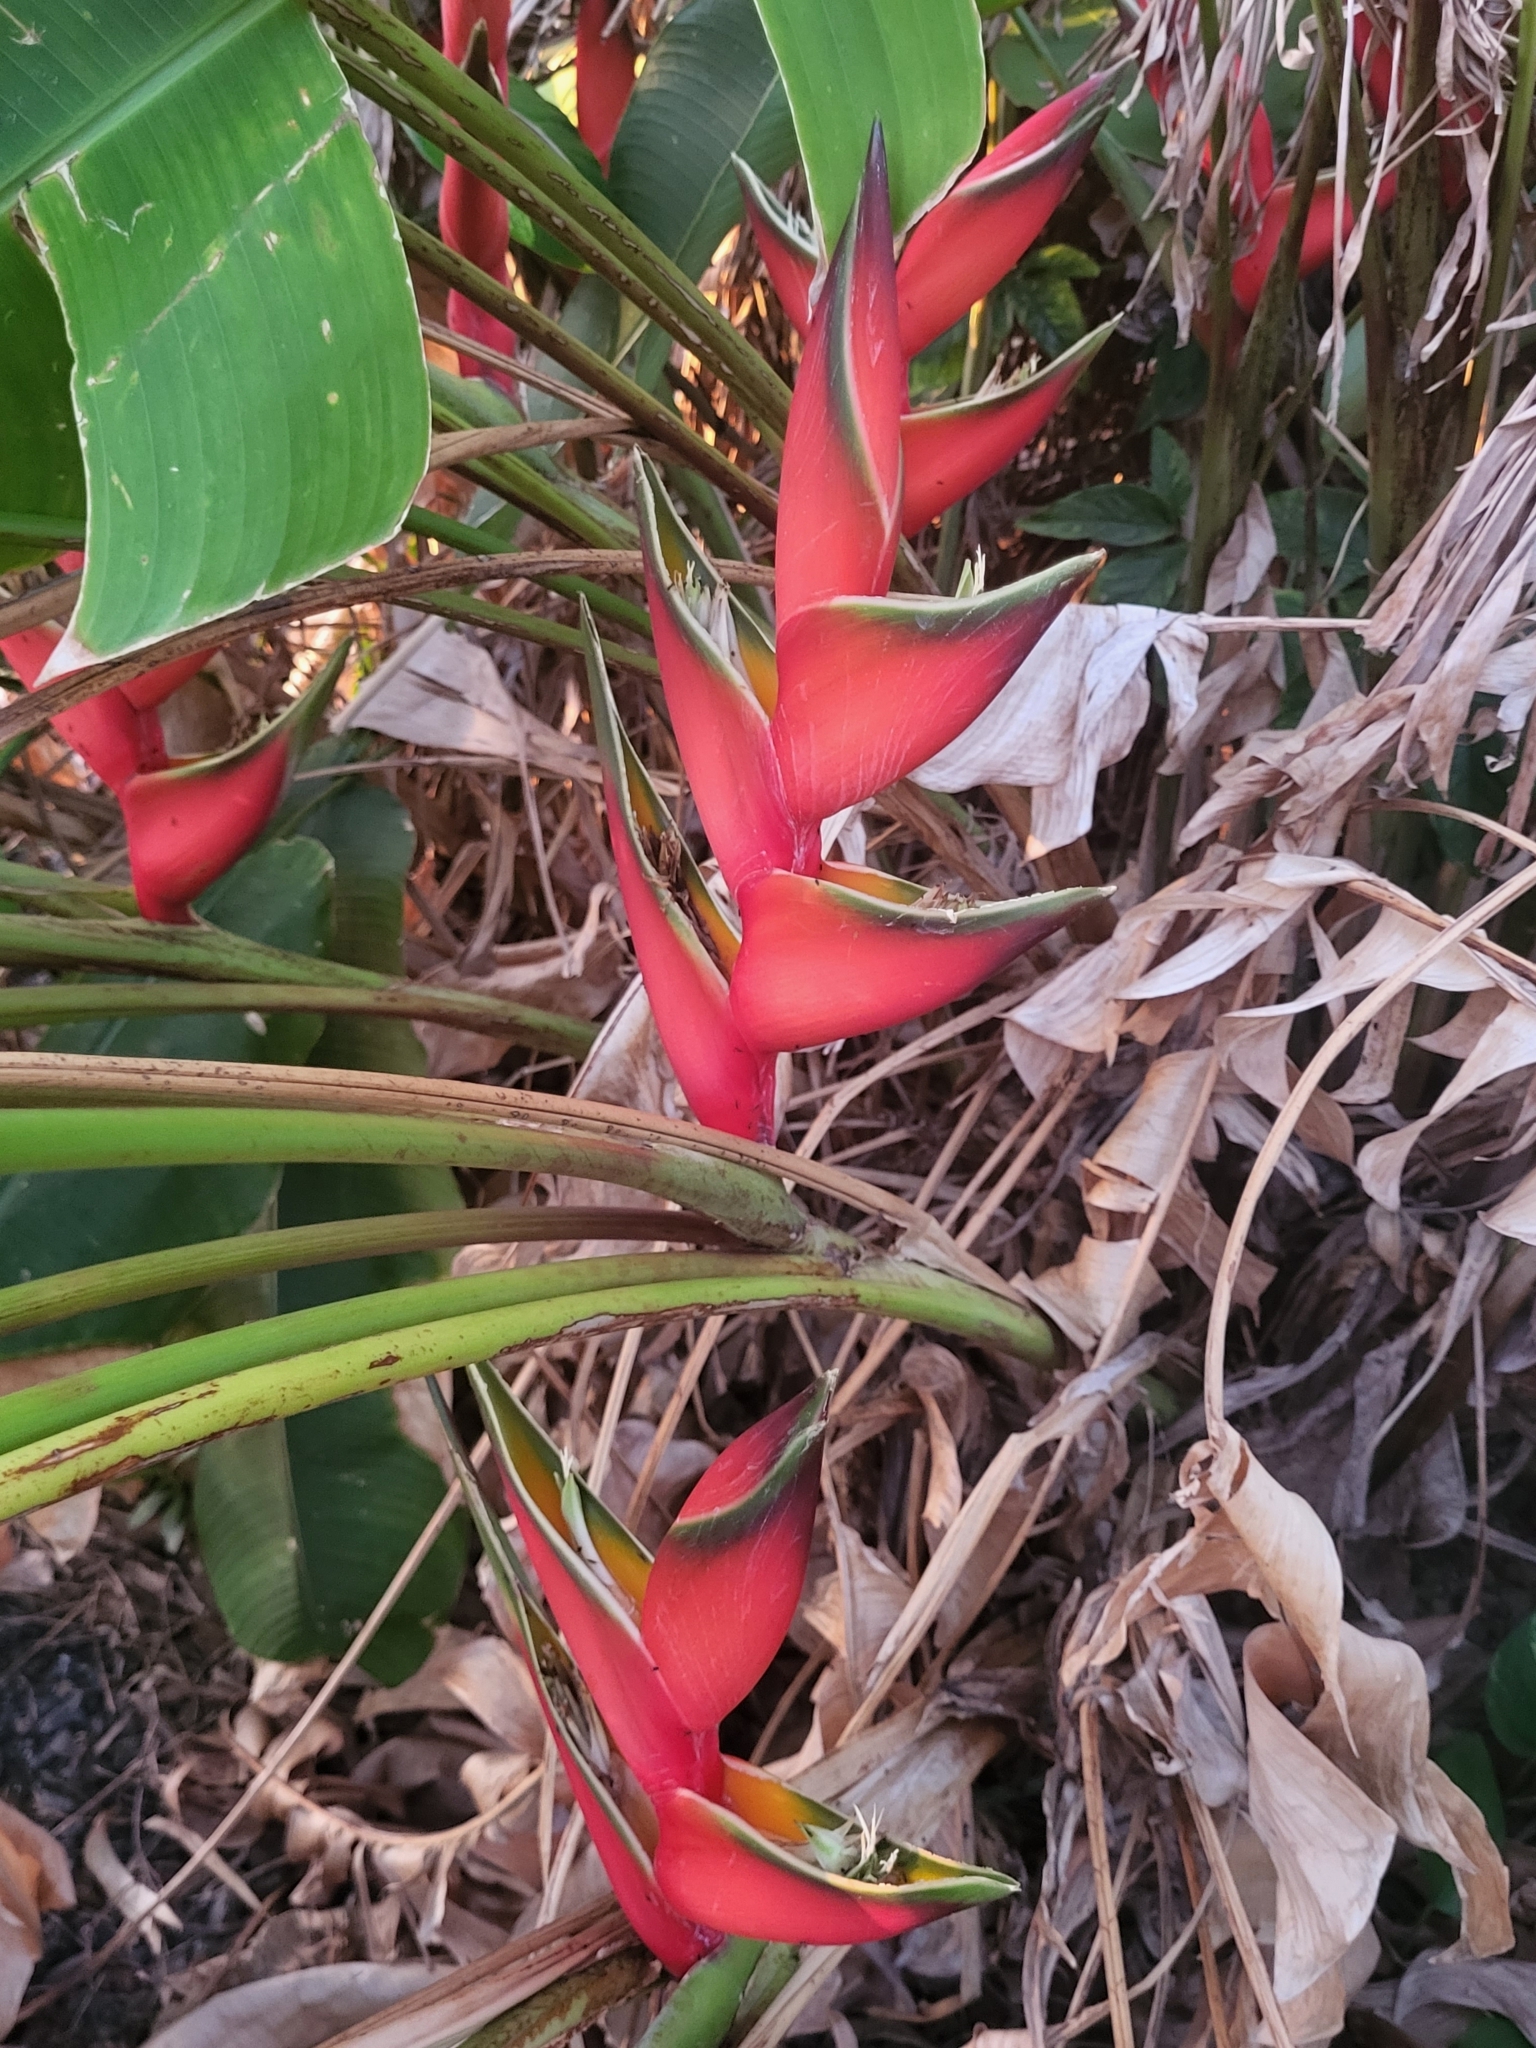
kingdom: Plantae
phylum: Tracheophyta
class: Liliopsida
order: Zingiberales
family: Heliconiaceae
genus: Heliconia
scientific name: Heliconia bihai
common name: Macaw flower
